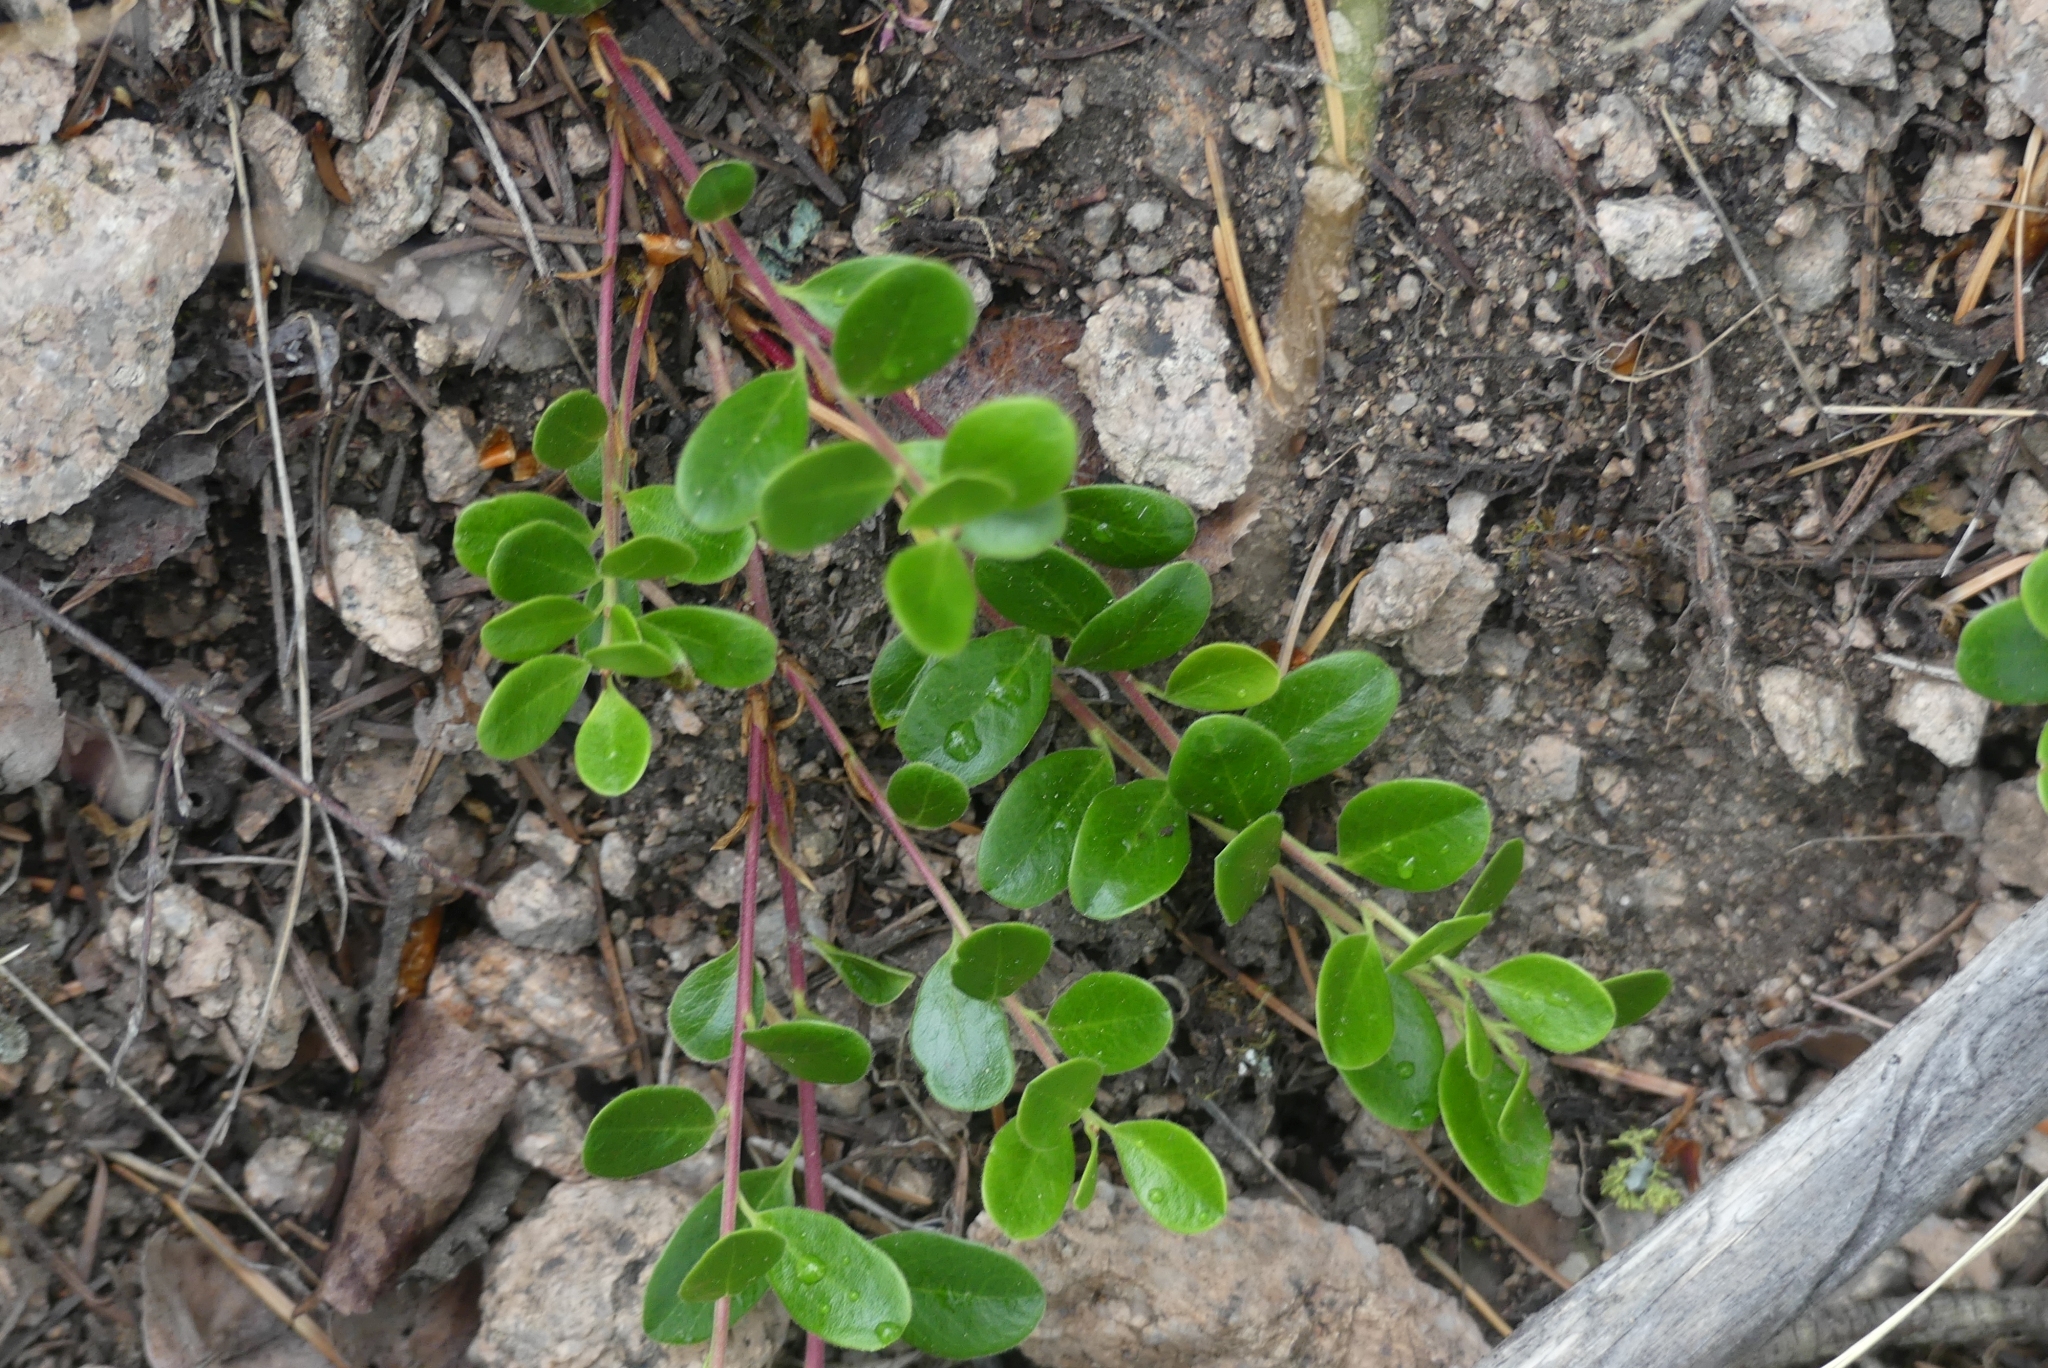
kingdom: Plantae
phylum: Tracheophyta
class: Magnoliopsida
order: Ericales
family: Ericaceae
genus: Arctostaphylos
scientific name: Arctostaphylos uva-ursi
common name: Bearberry
